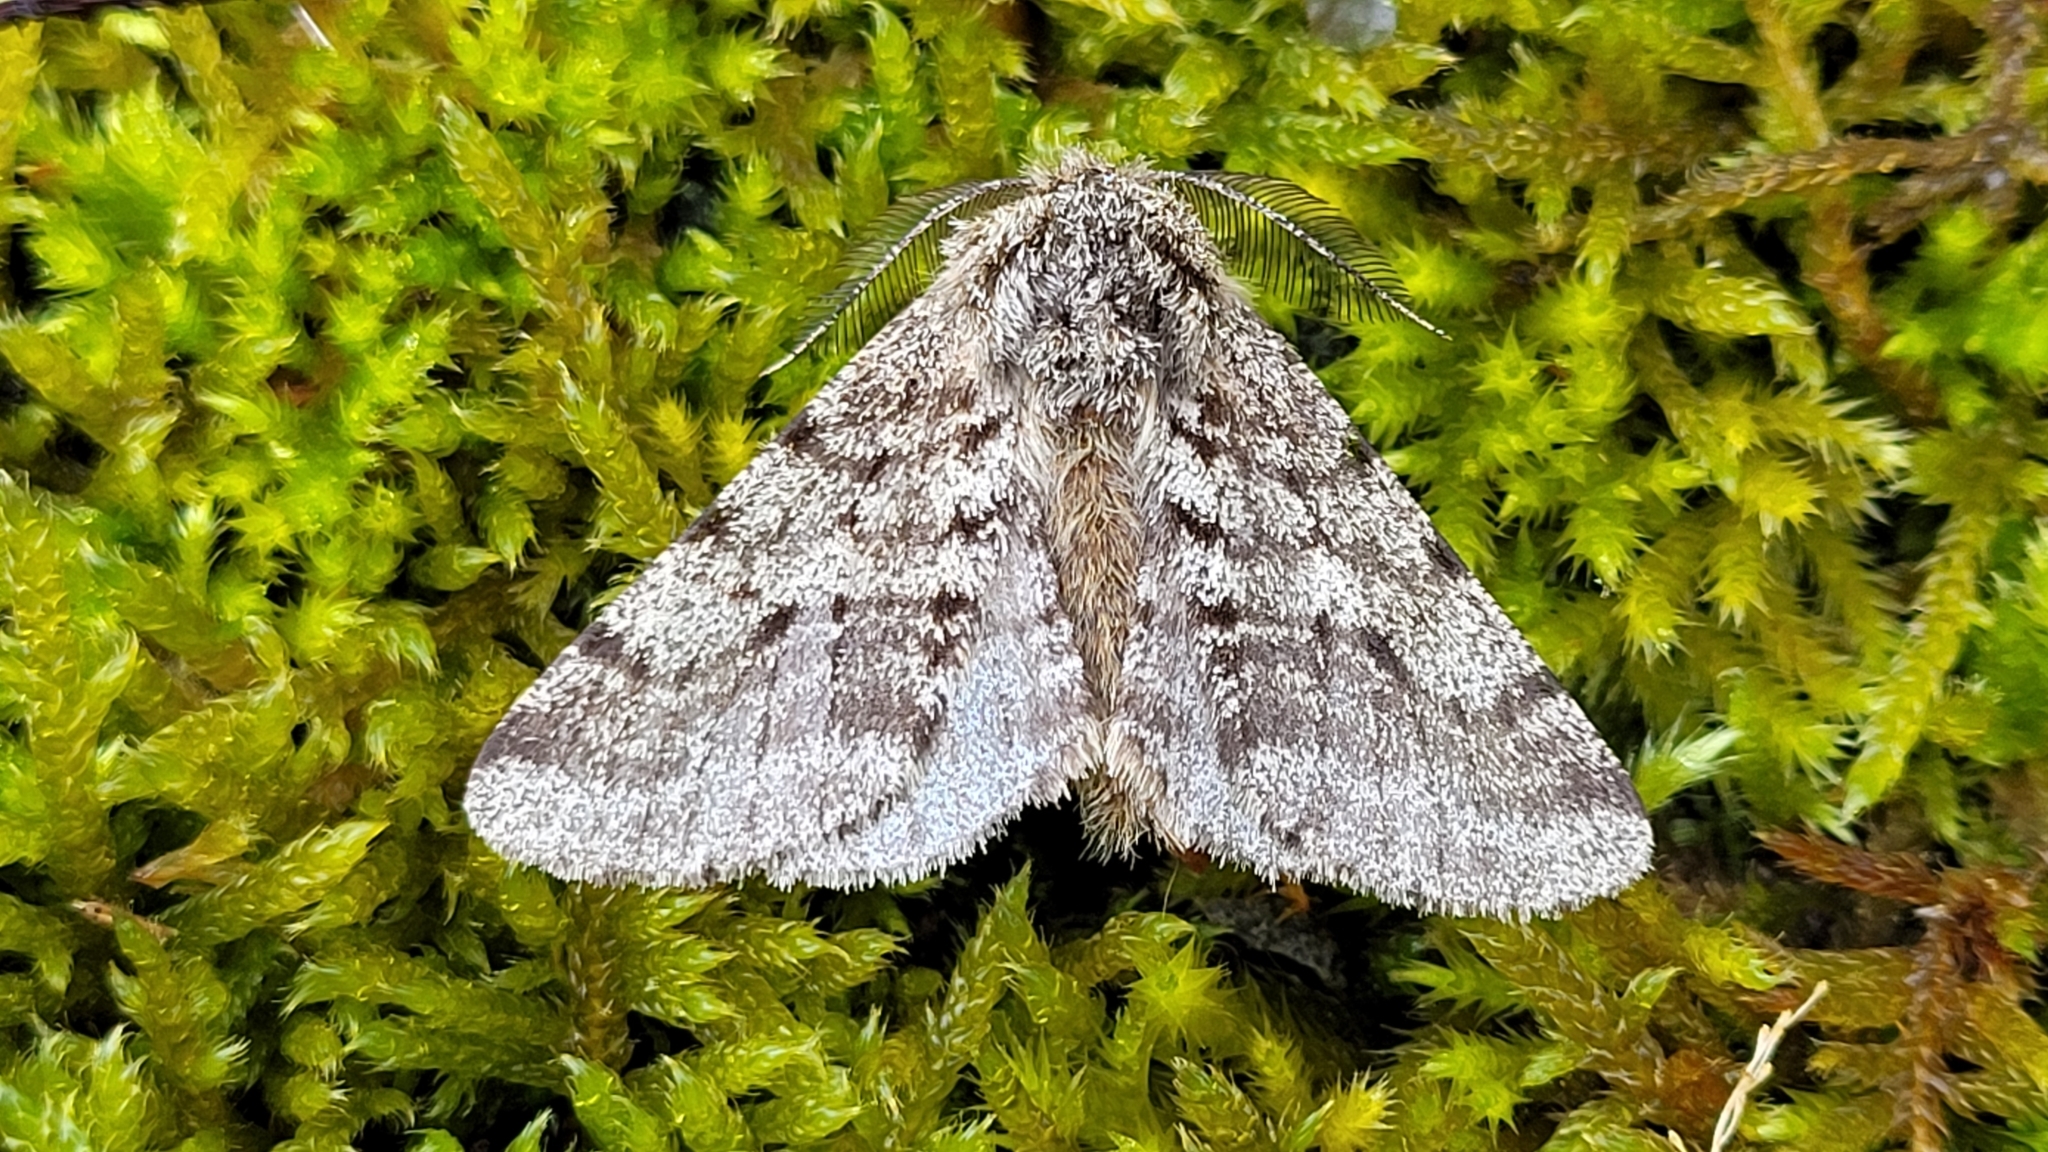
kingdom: Animalia
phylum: Arthropoda
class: Insecta
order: Lepidoptera
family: Geometridae
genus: Lycia
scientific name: Lycia hirtaria
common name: Brindled beauty
